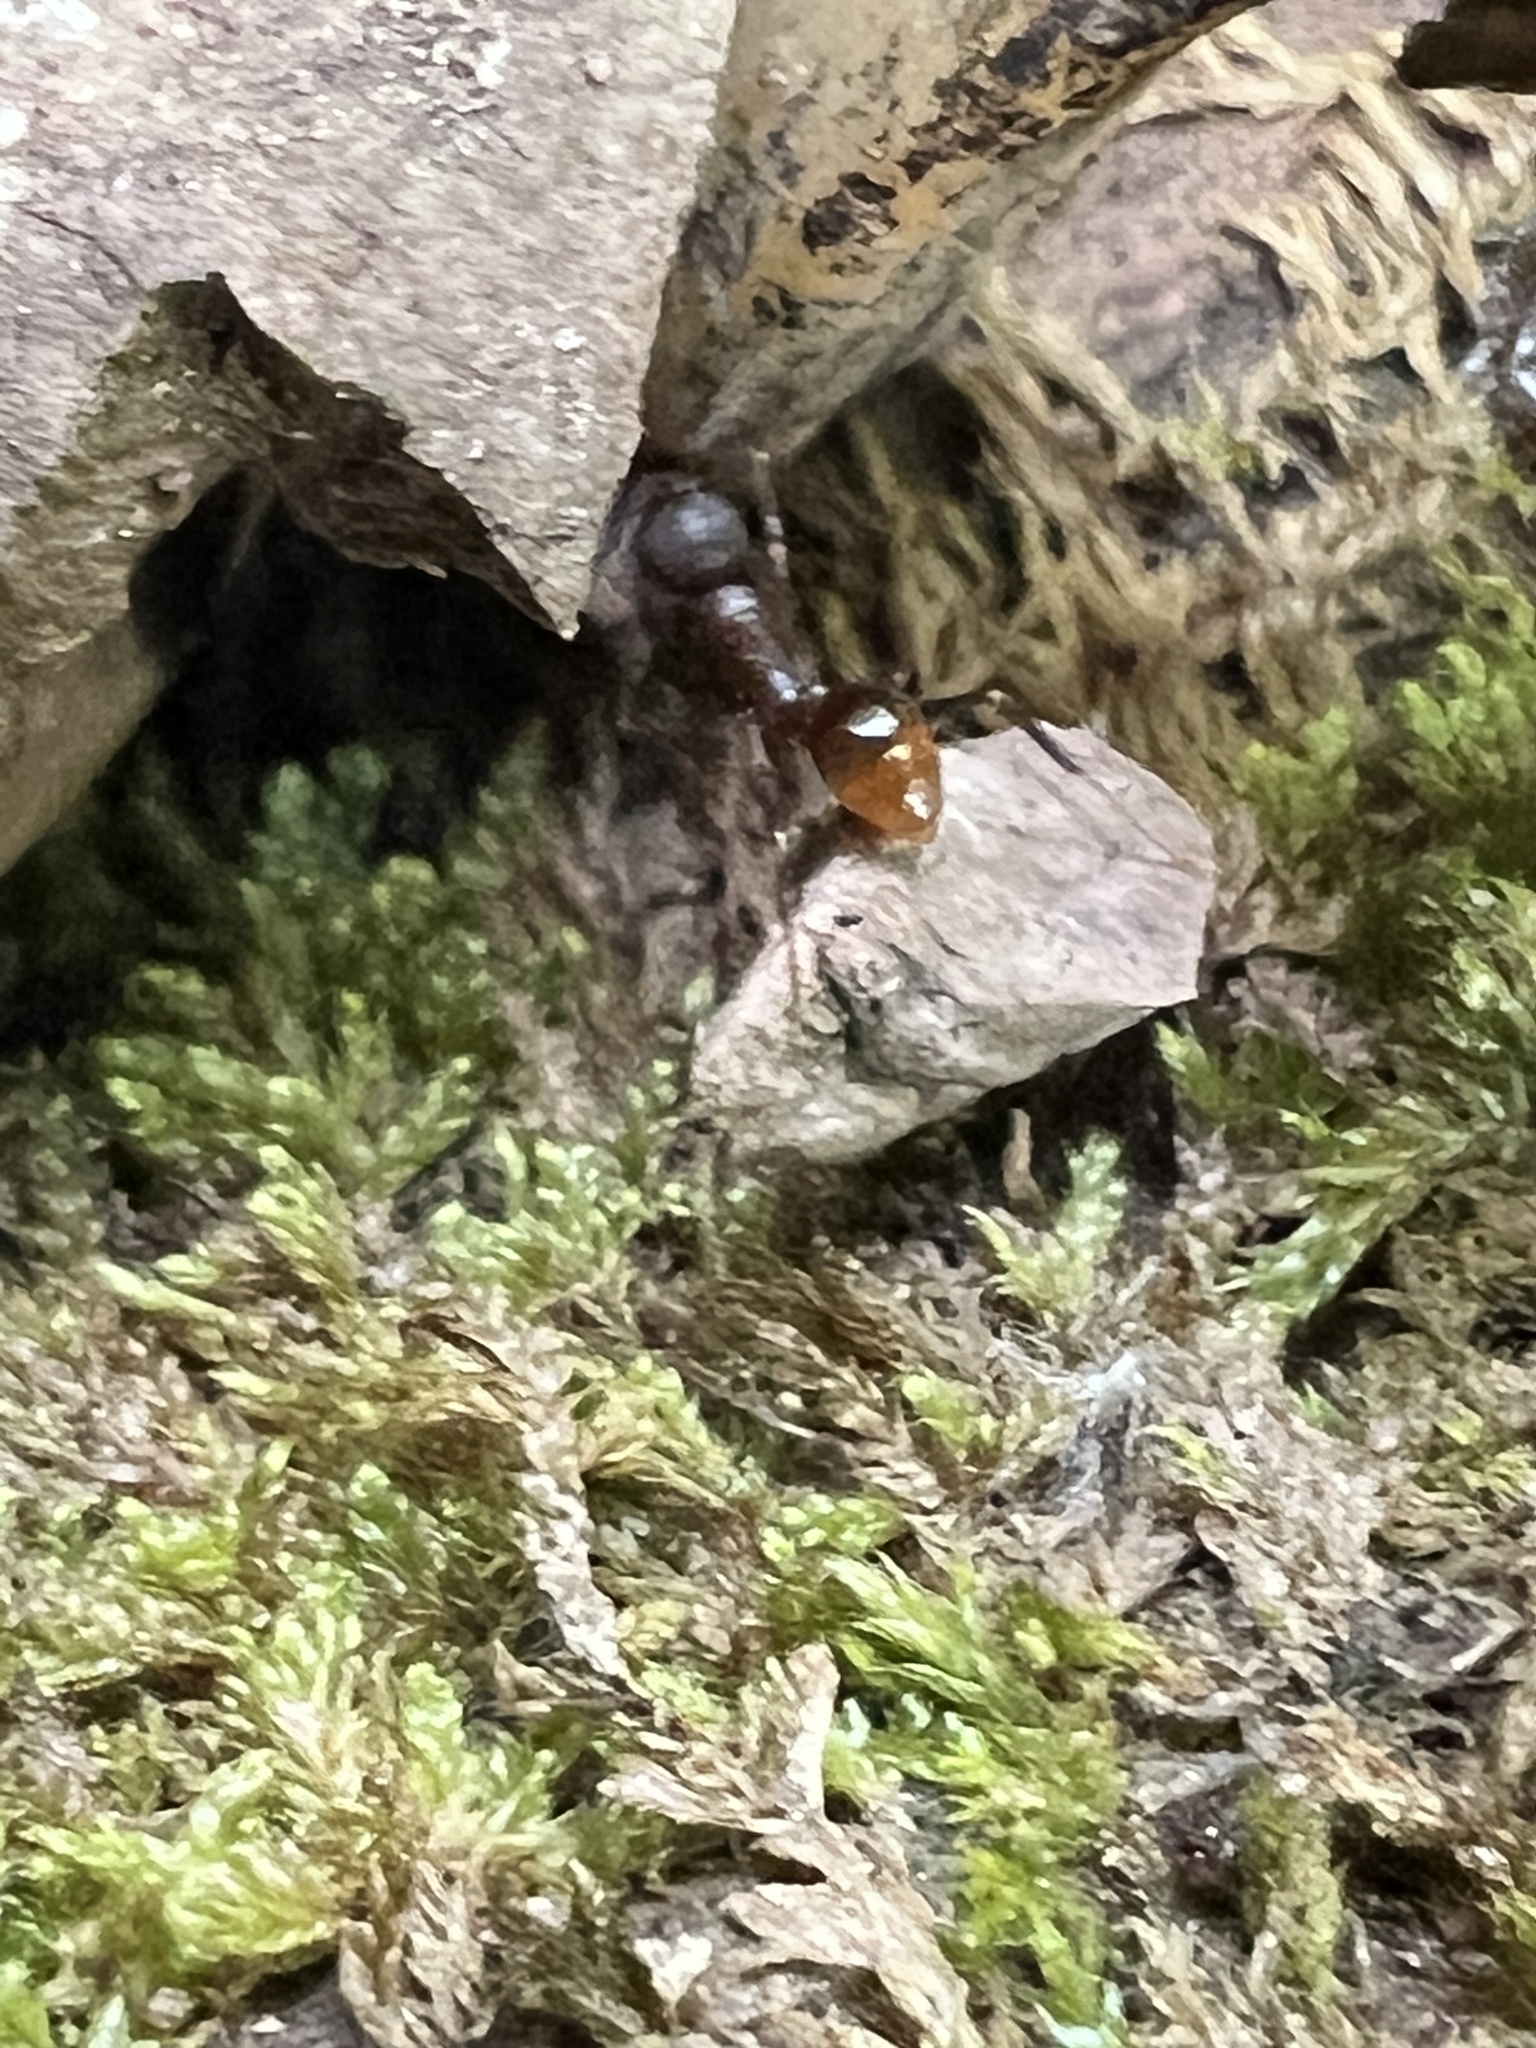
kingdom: Animalia
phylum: Arthropoda
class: Insecta
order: Hymenoptera
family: Formicidae
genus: Aphaenogaster
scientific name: Aphaenogaster fulva
